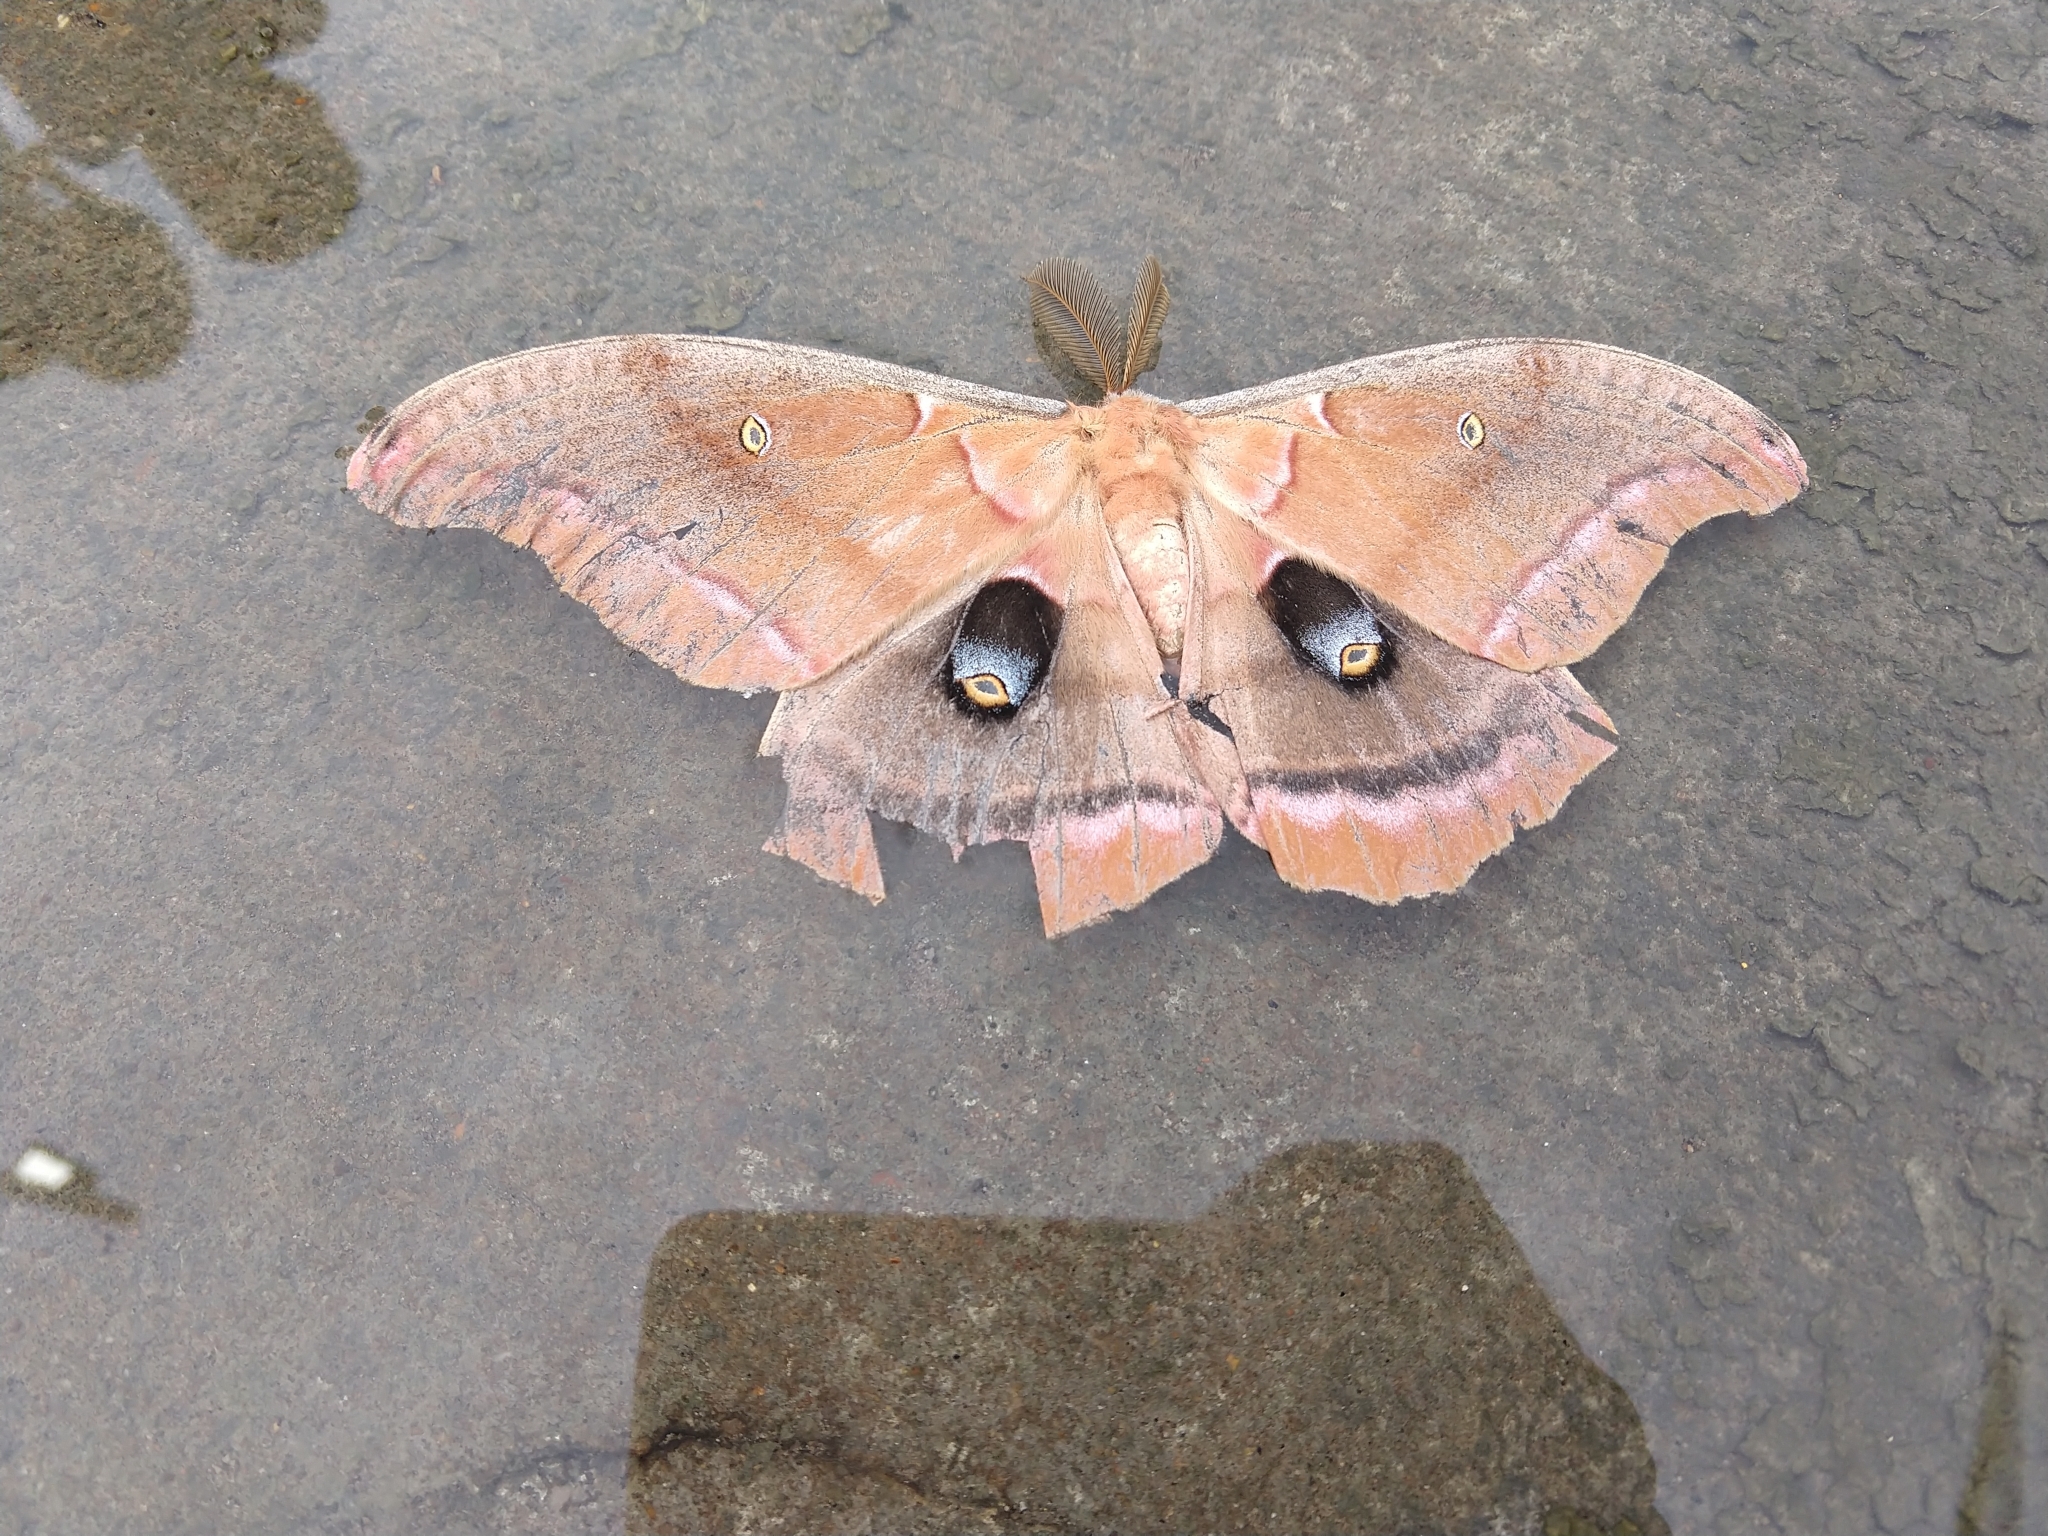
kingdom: Animalia
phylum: Arthropoda
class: Insecta
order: Lepidoptera
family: Saturniidae
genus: Antheraea
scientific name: Antheraea polyphemus
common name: Polyphemus moth
